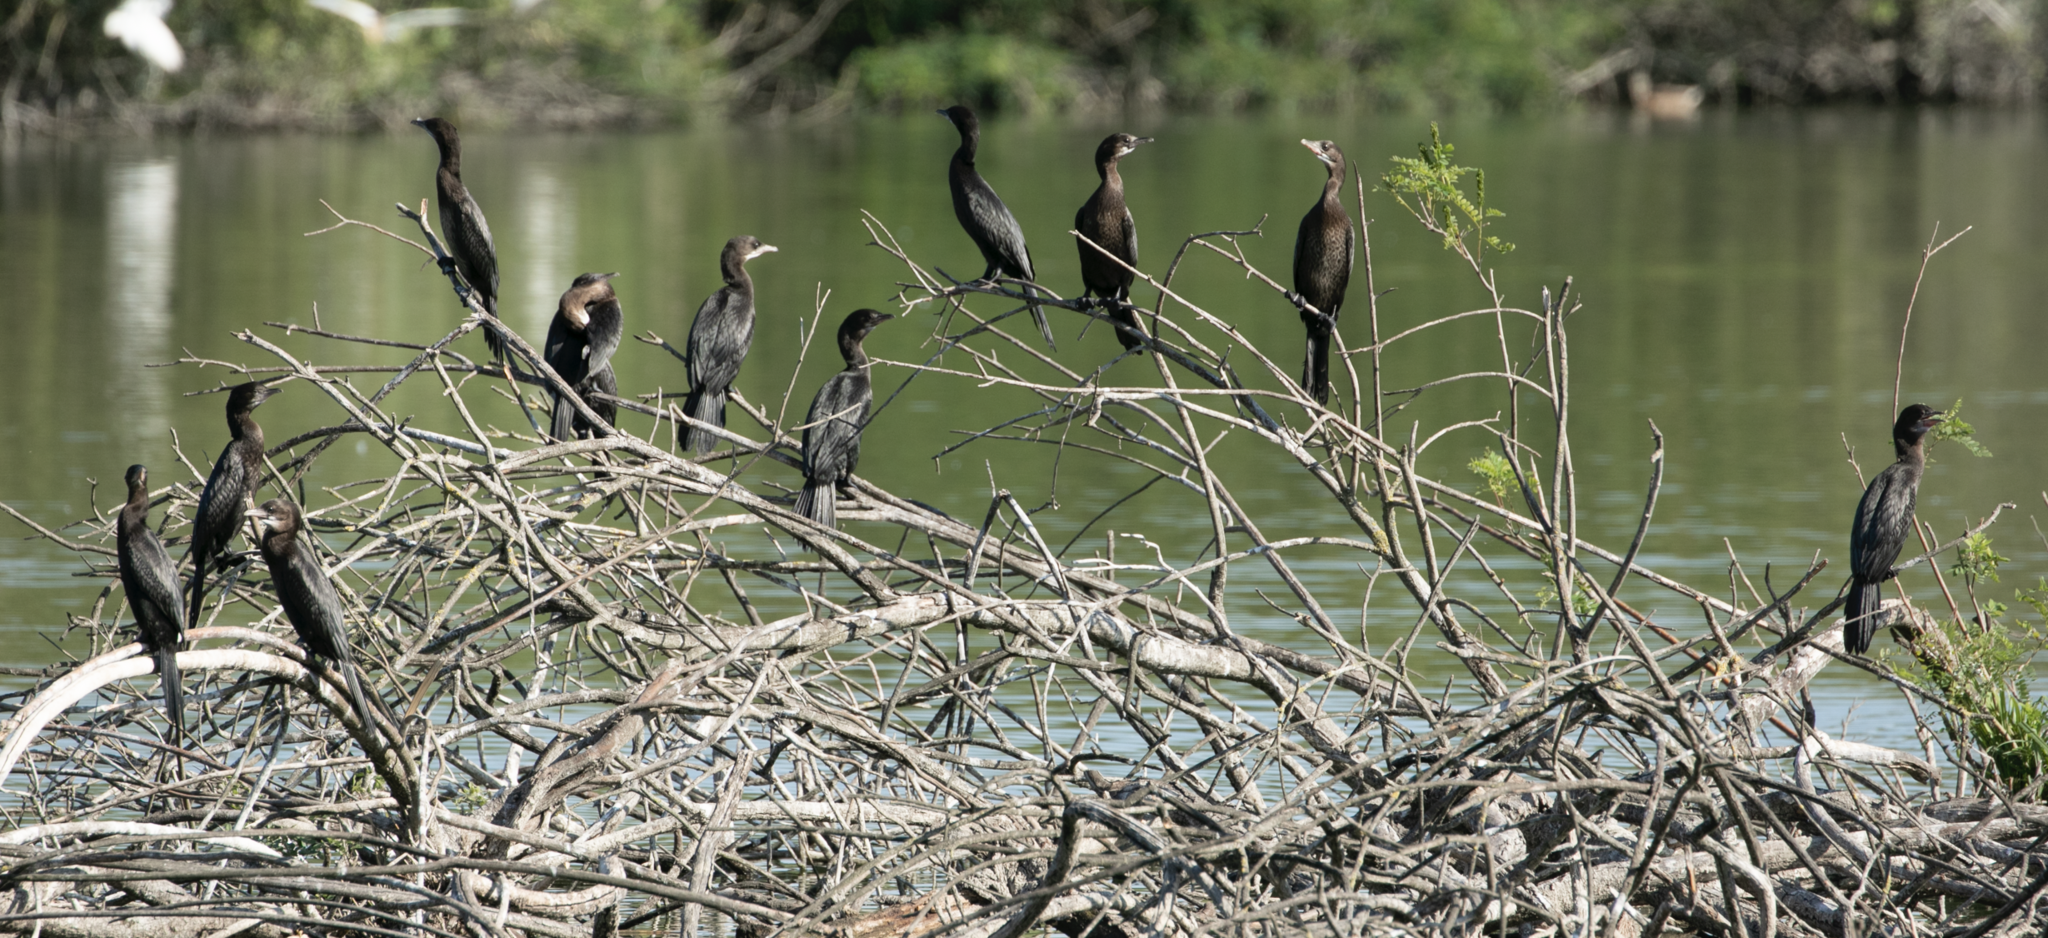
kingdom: Animalia
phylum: Chordata
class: Aves
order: Suliformes
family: Phalacrocoracidae
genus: Microcarbo
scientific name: Microcarbo pygmaeus
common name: Pygmy cormorant
